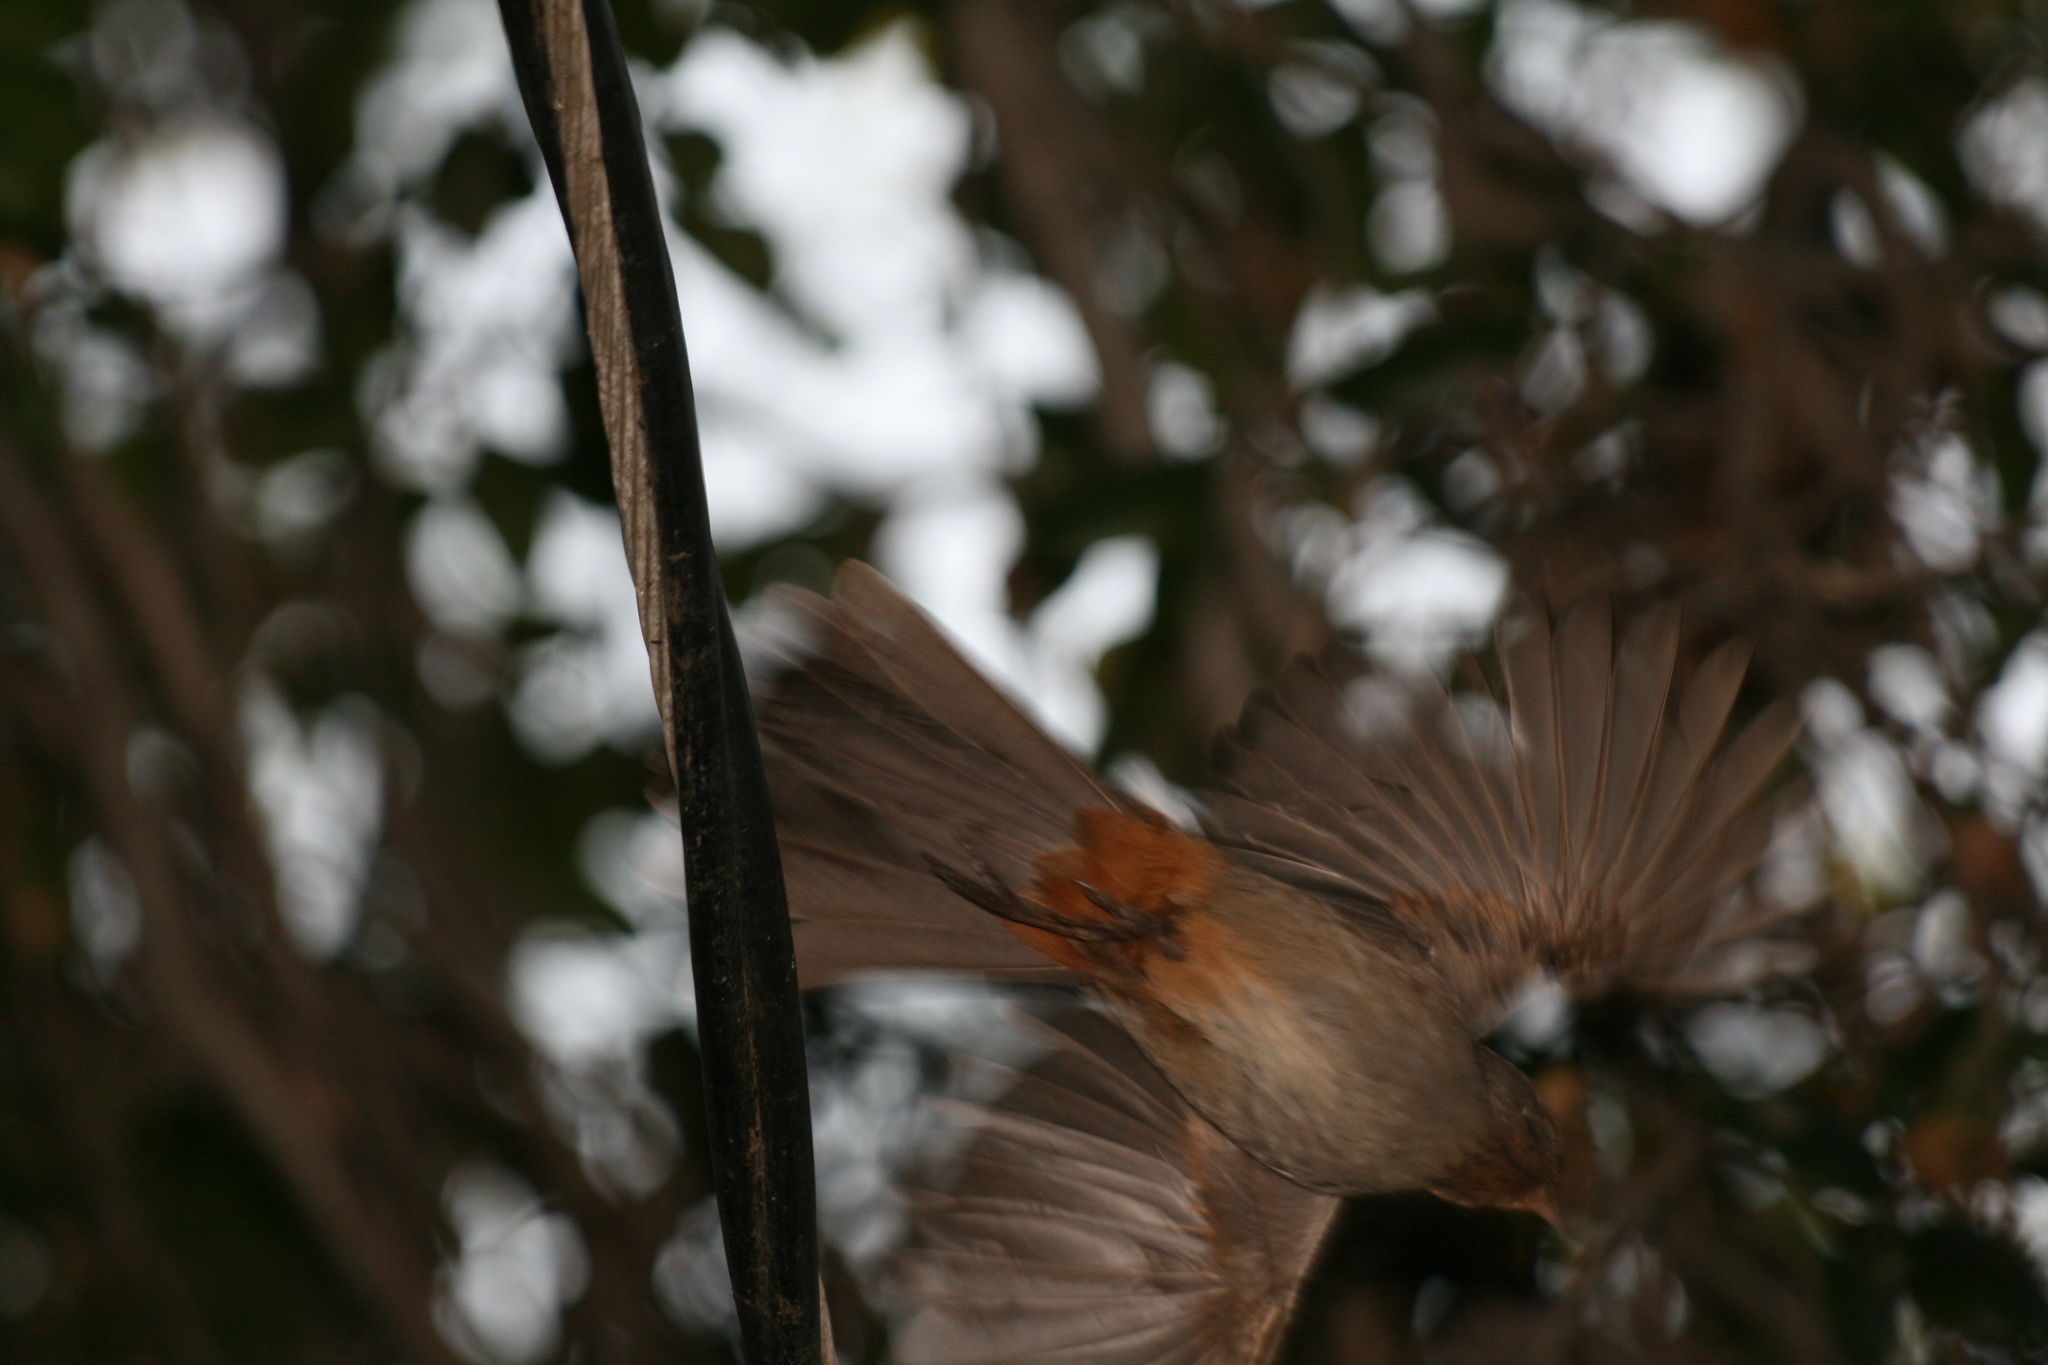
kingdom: Animalia
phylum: Chordata
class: Aves
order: Passeriformes
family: Passerellidae
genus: Melozone
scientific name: Melozone crissalis
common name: California towhee
